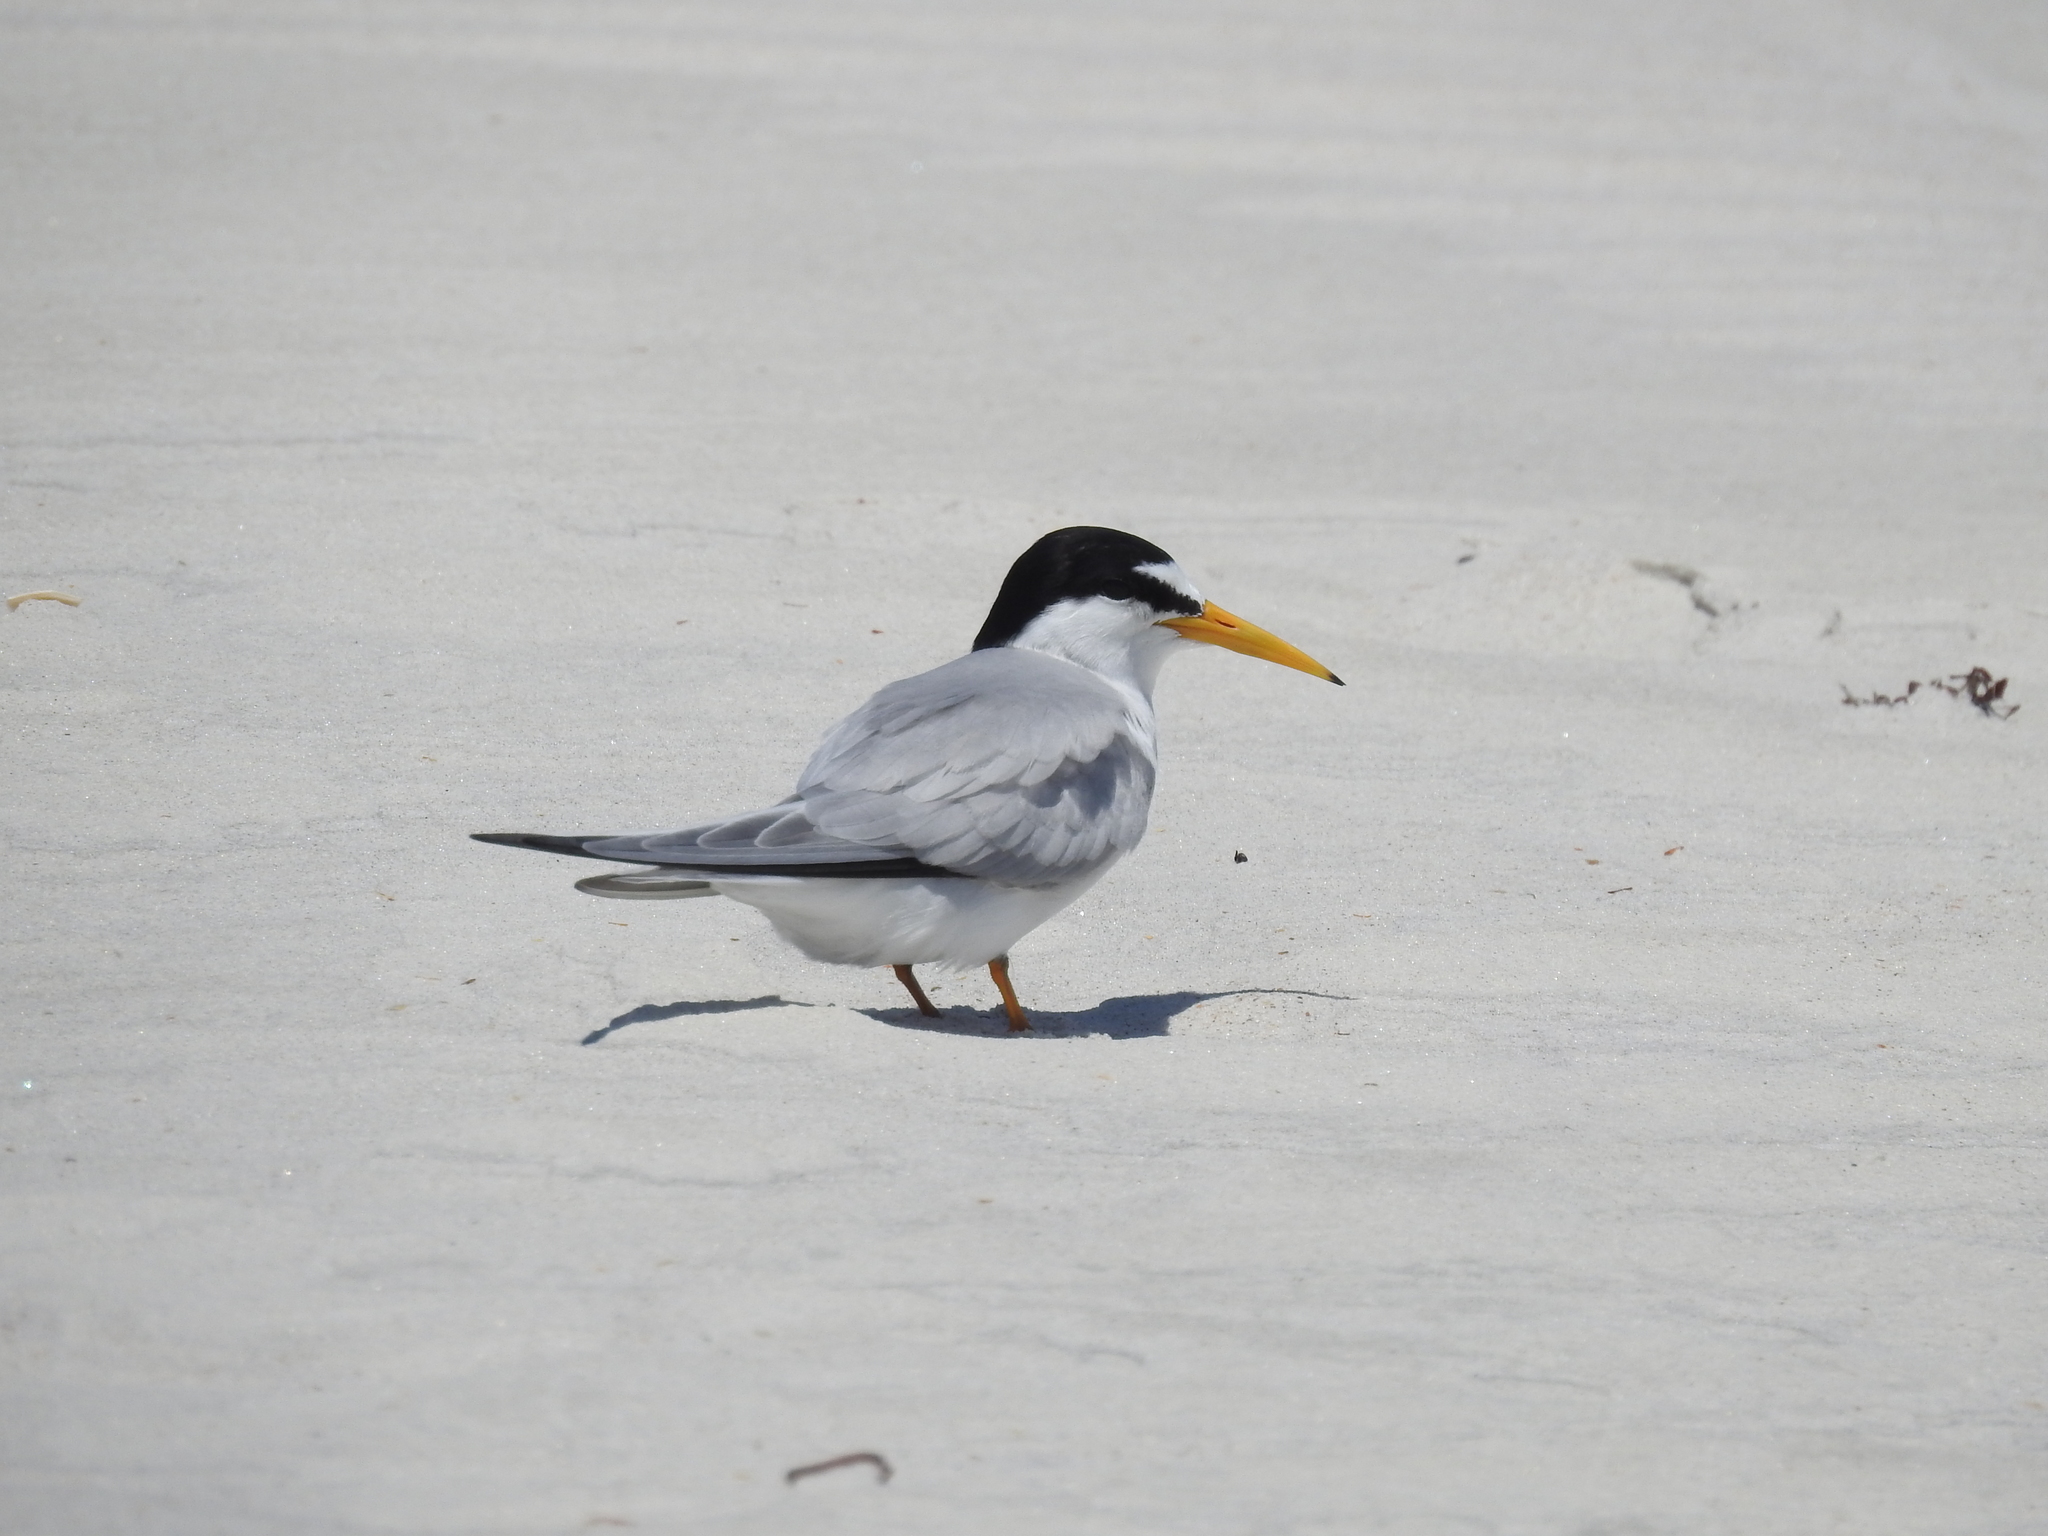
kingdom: Animalia
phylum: Chordata
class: Aves
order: Charadriiformes
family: Laridae
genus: Sternula
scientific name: Sternula antillarum
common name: Least tern
